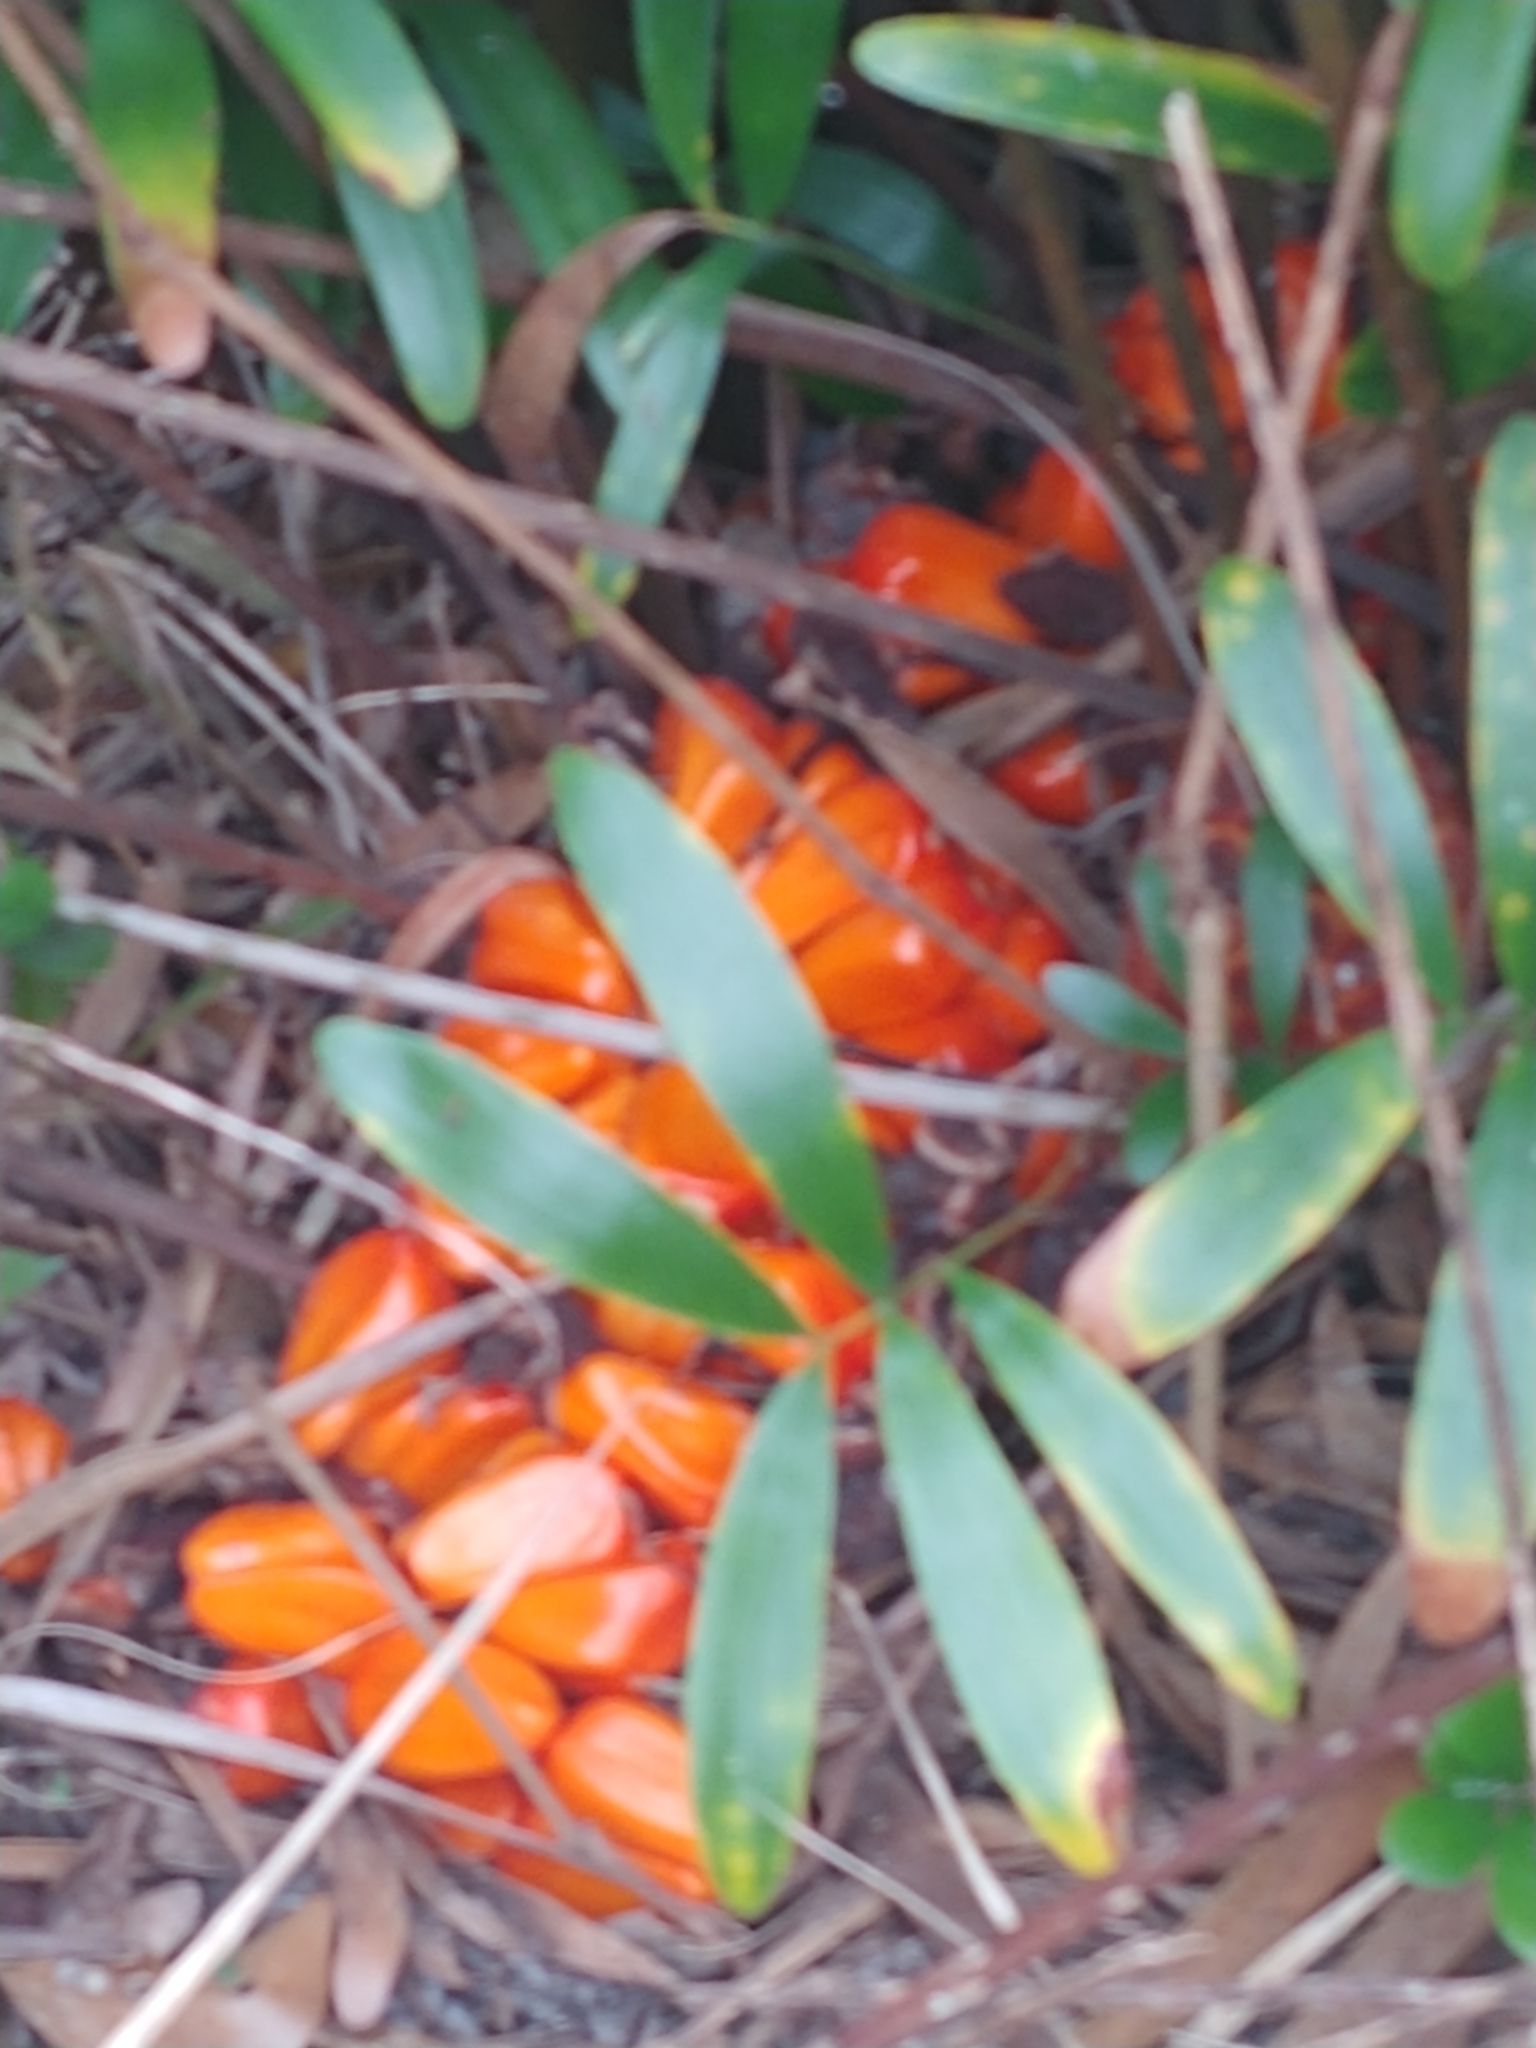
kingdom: Plantae
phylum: Tracheophyta
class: Cycadopsida
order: Cycadales
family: Zamiaceae
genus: Zamia
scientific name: Zamia integrifolia
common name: Florida arrowroot
